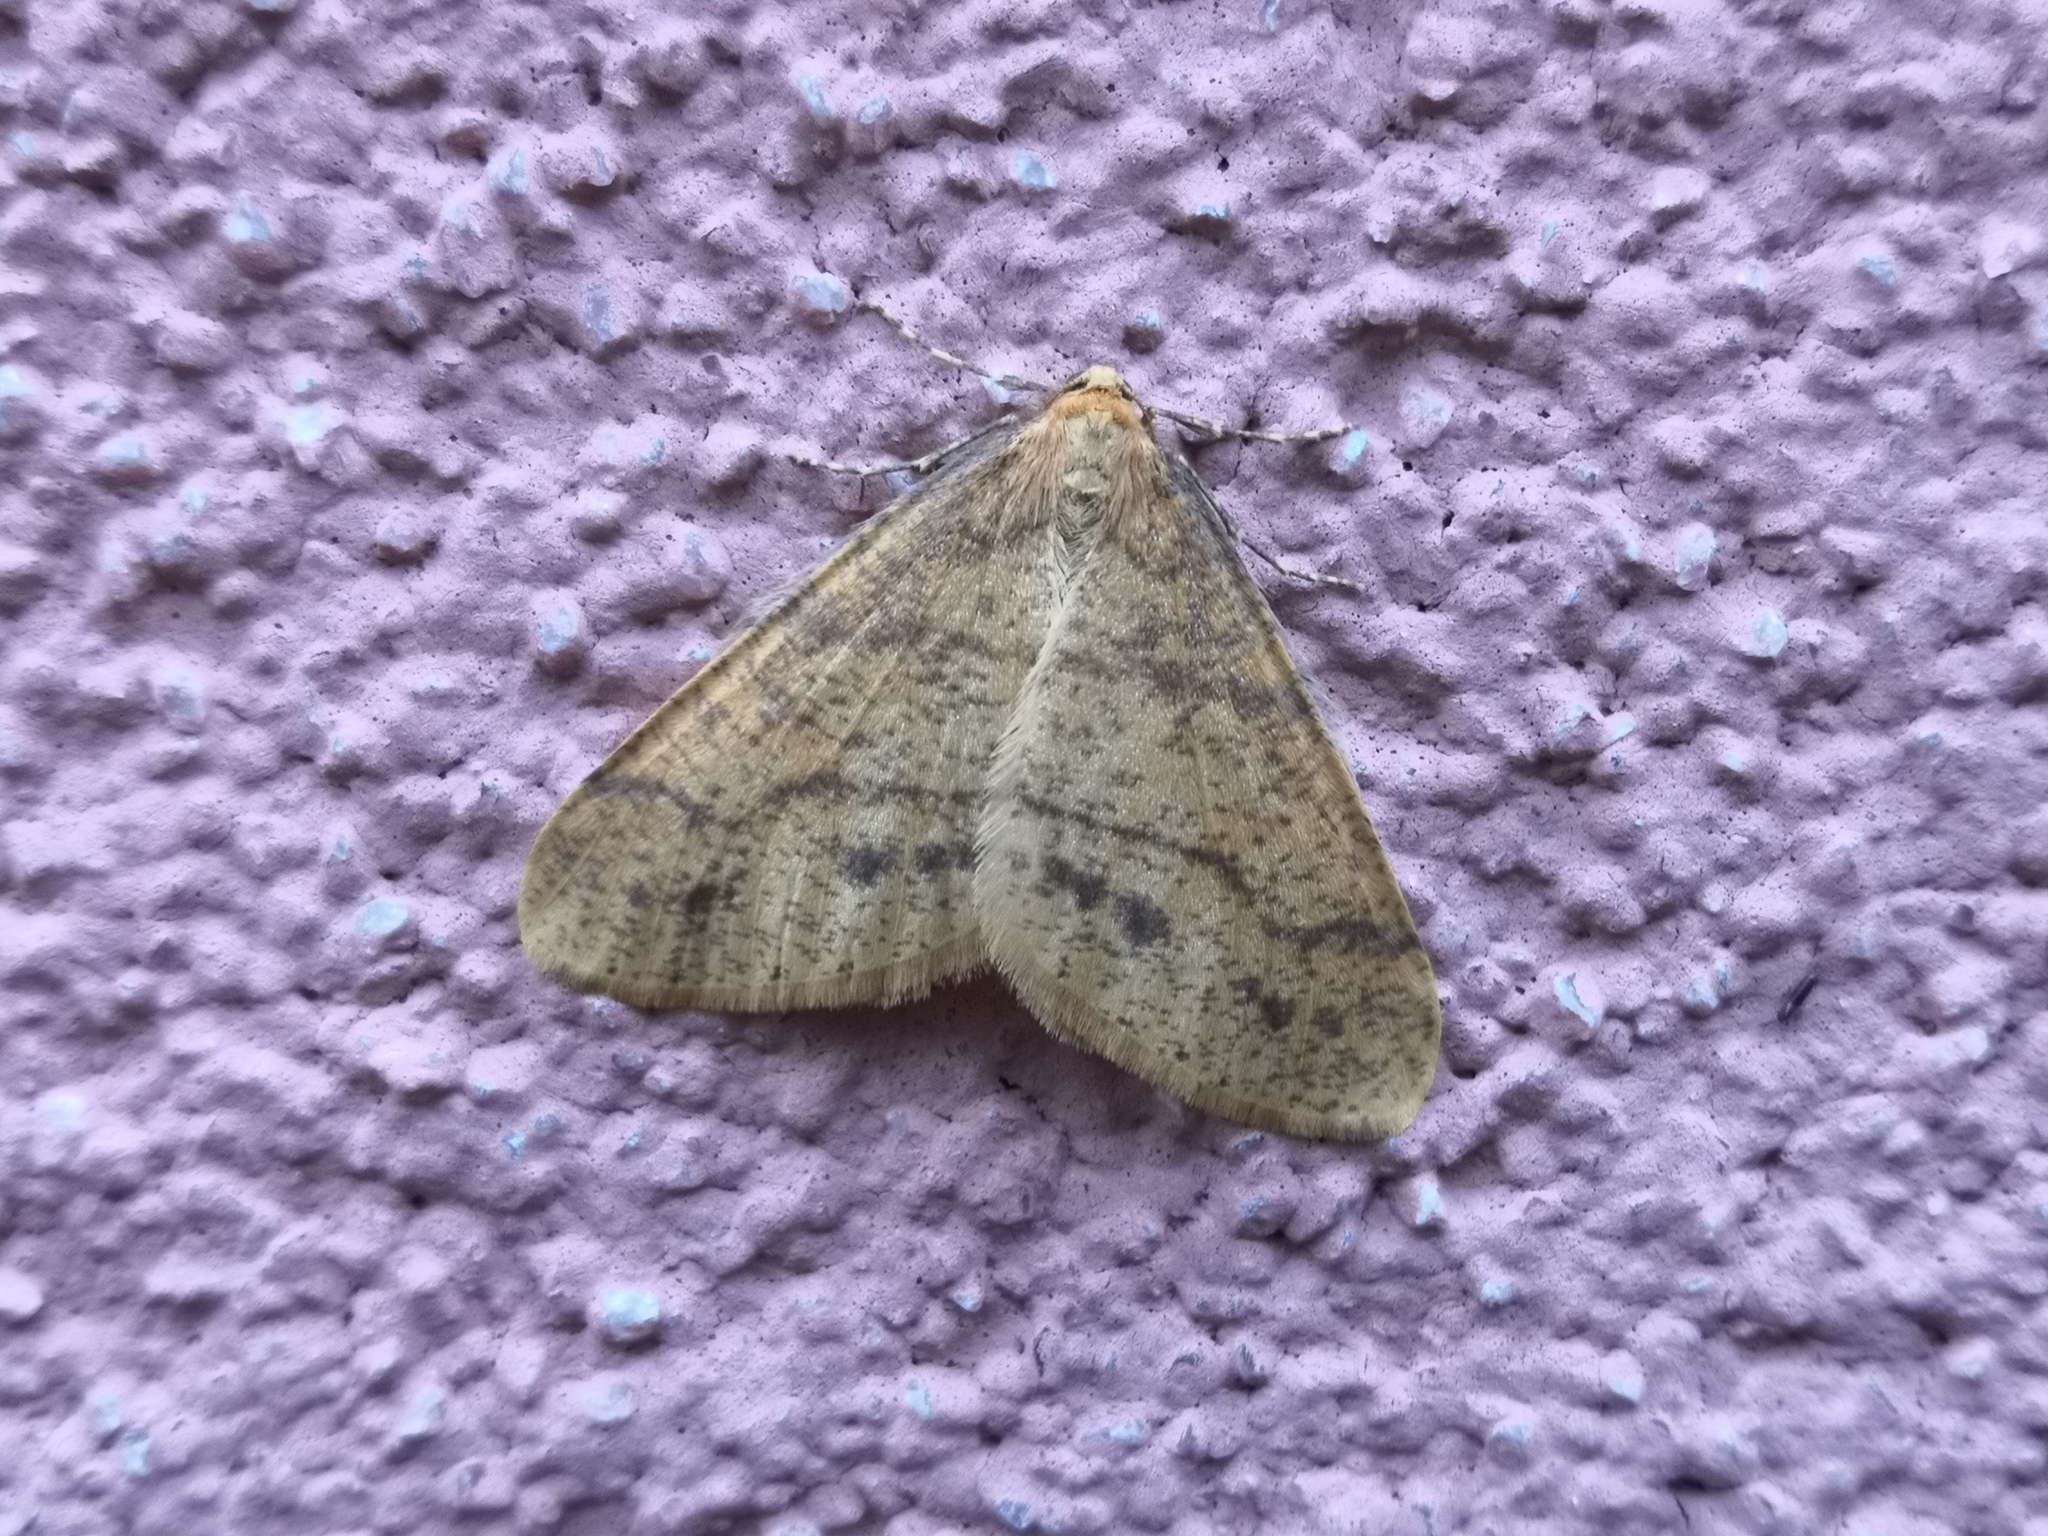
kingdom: Animalia
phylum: Arthropoda
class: Insecta
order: Lepidoptera
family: Geometridae
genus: Agriopis
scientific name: Agriopis aurantiaria
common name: Scarce umber
